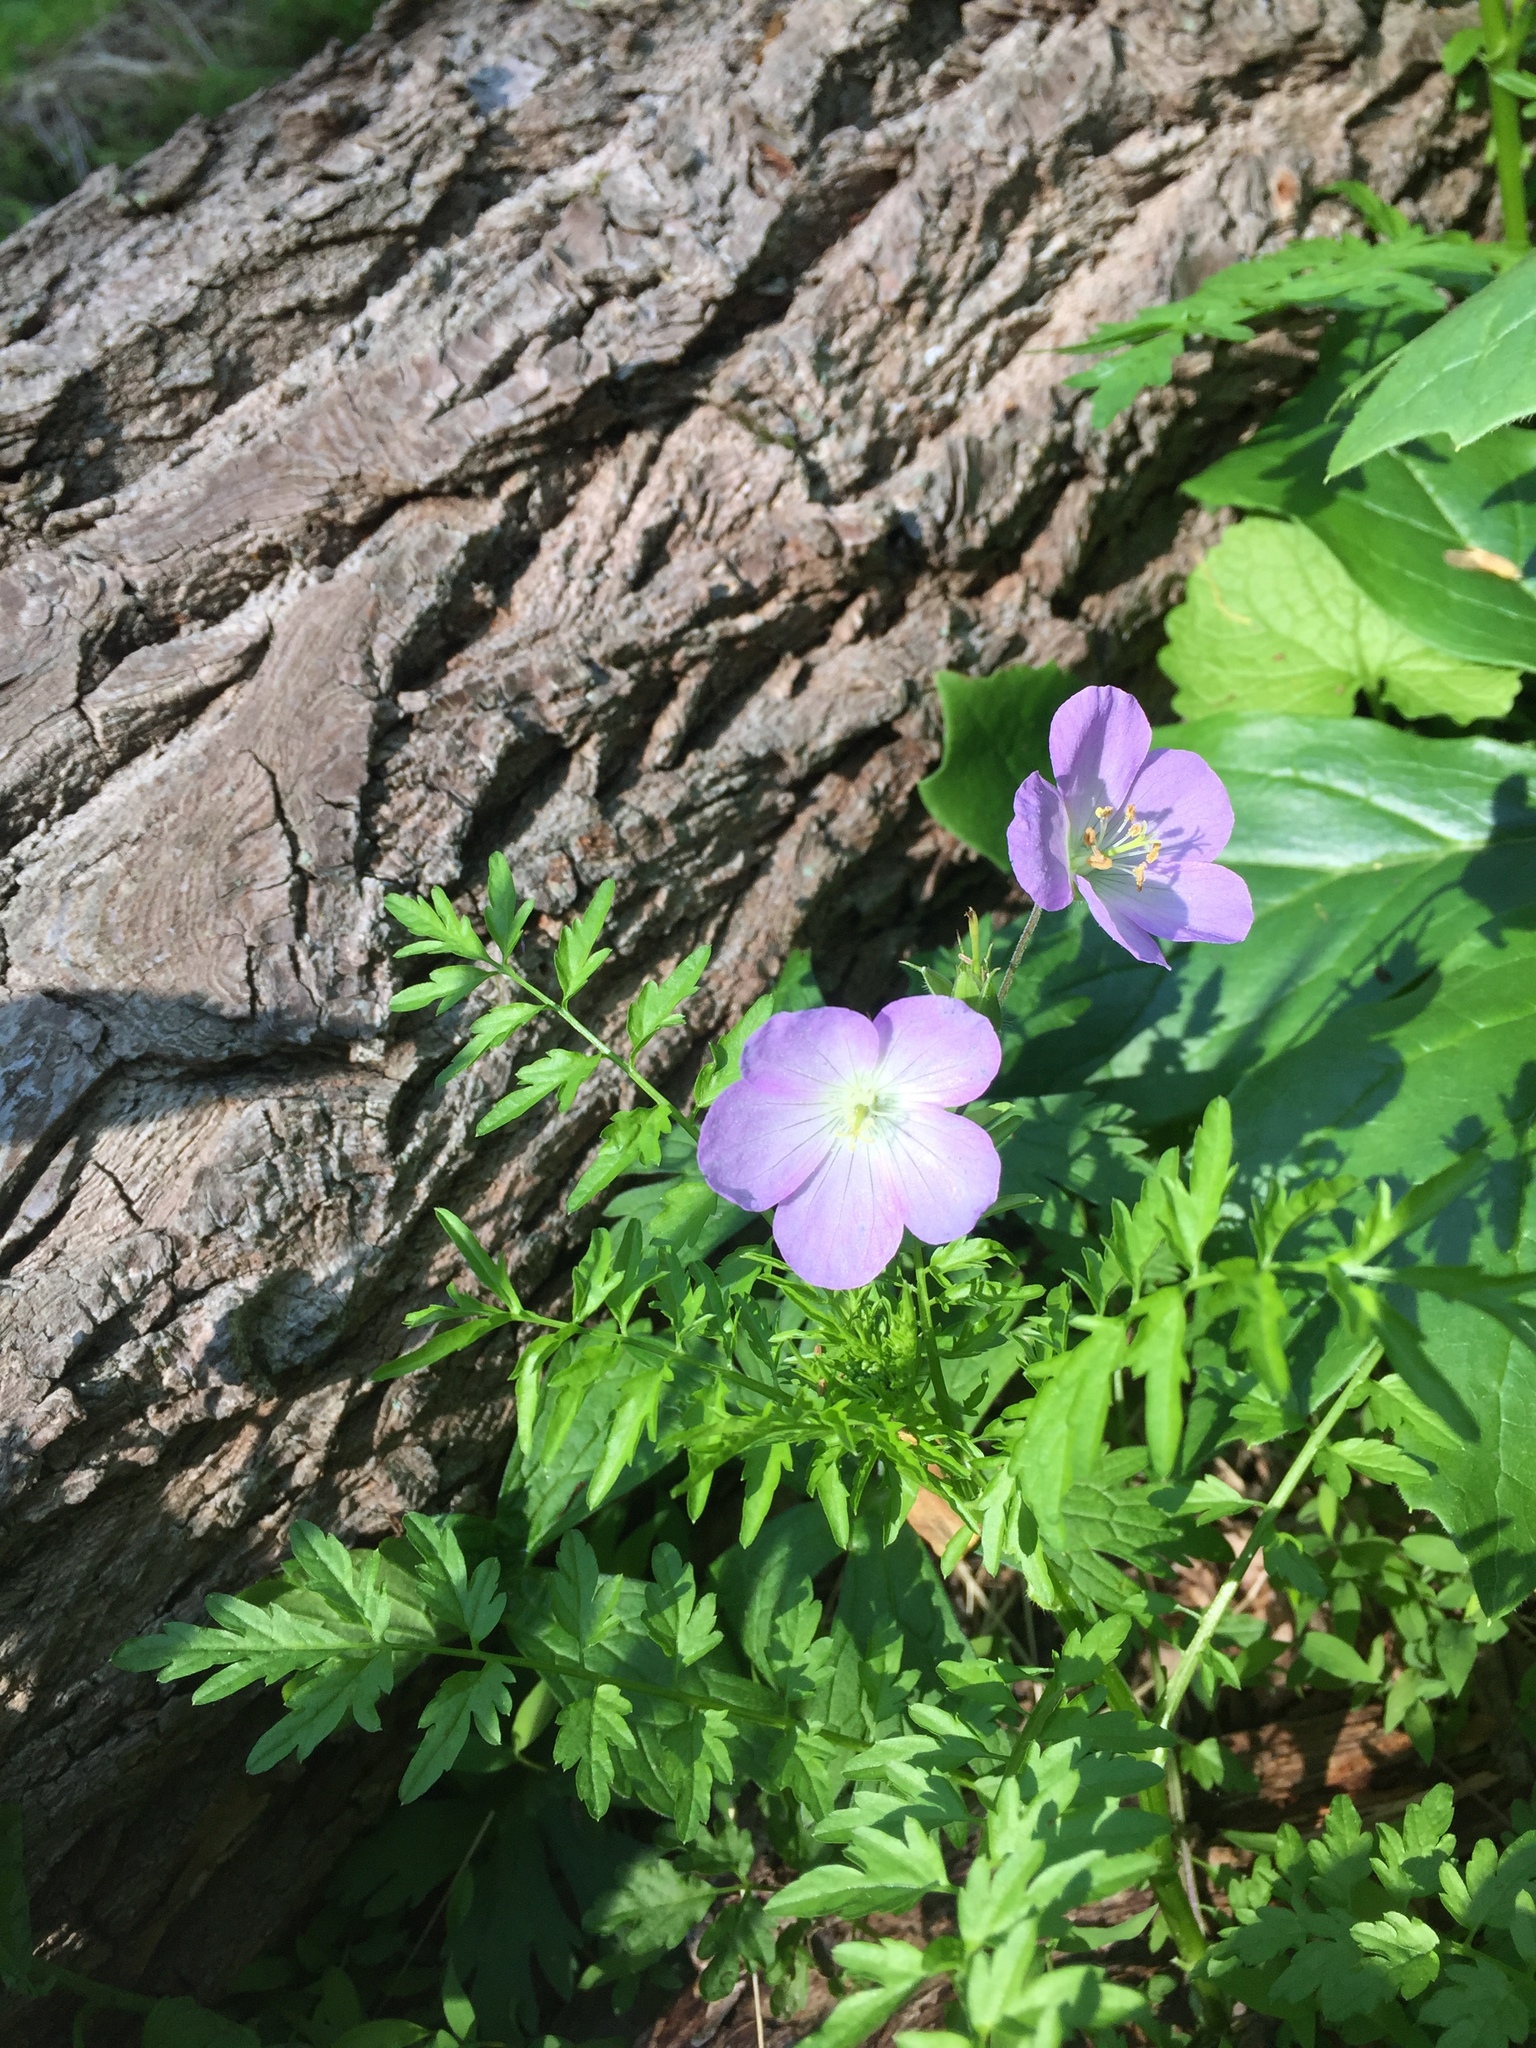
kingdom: Plantae
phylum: Tracheophyta
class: Magnoliopsida
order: Geraniales
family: Geraniaceae
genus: Geranium
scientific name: Geranium maculatum
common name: Spotted geranium
